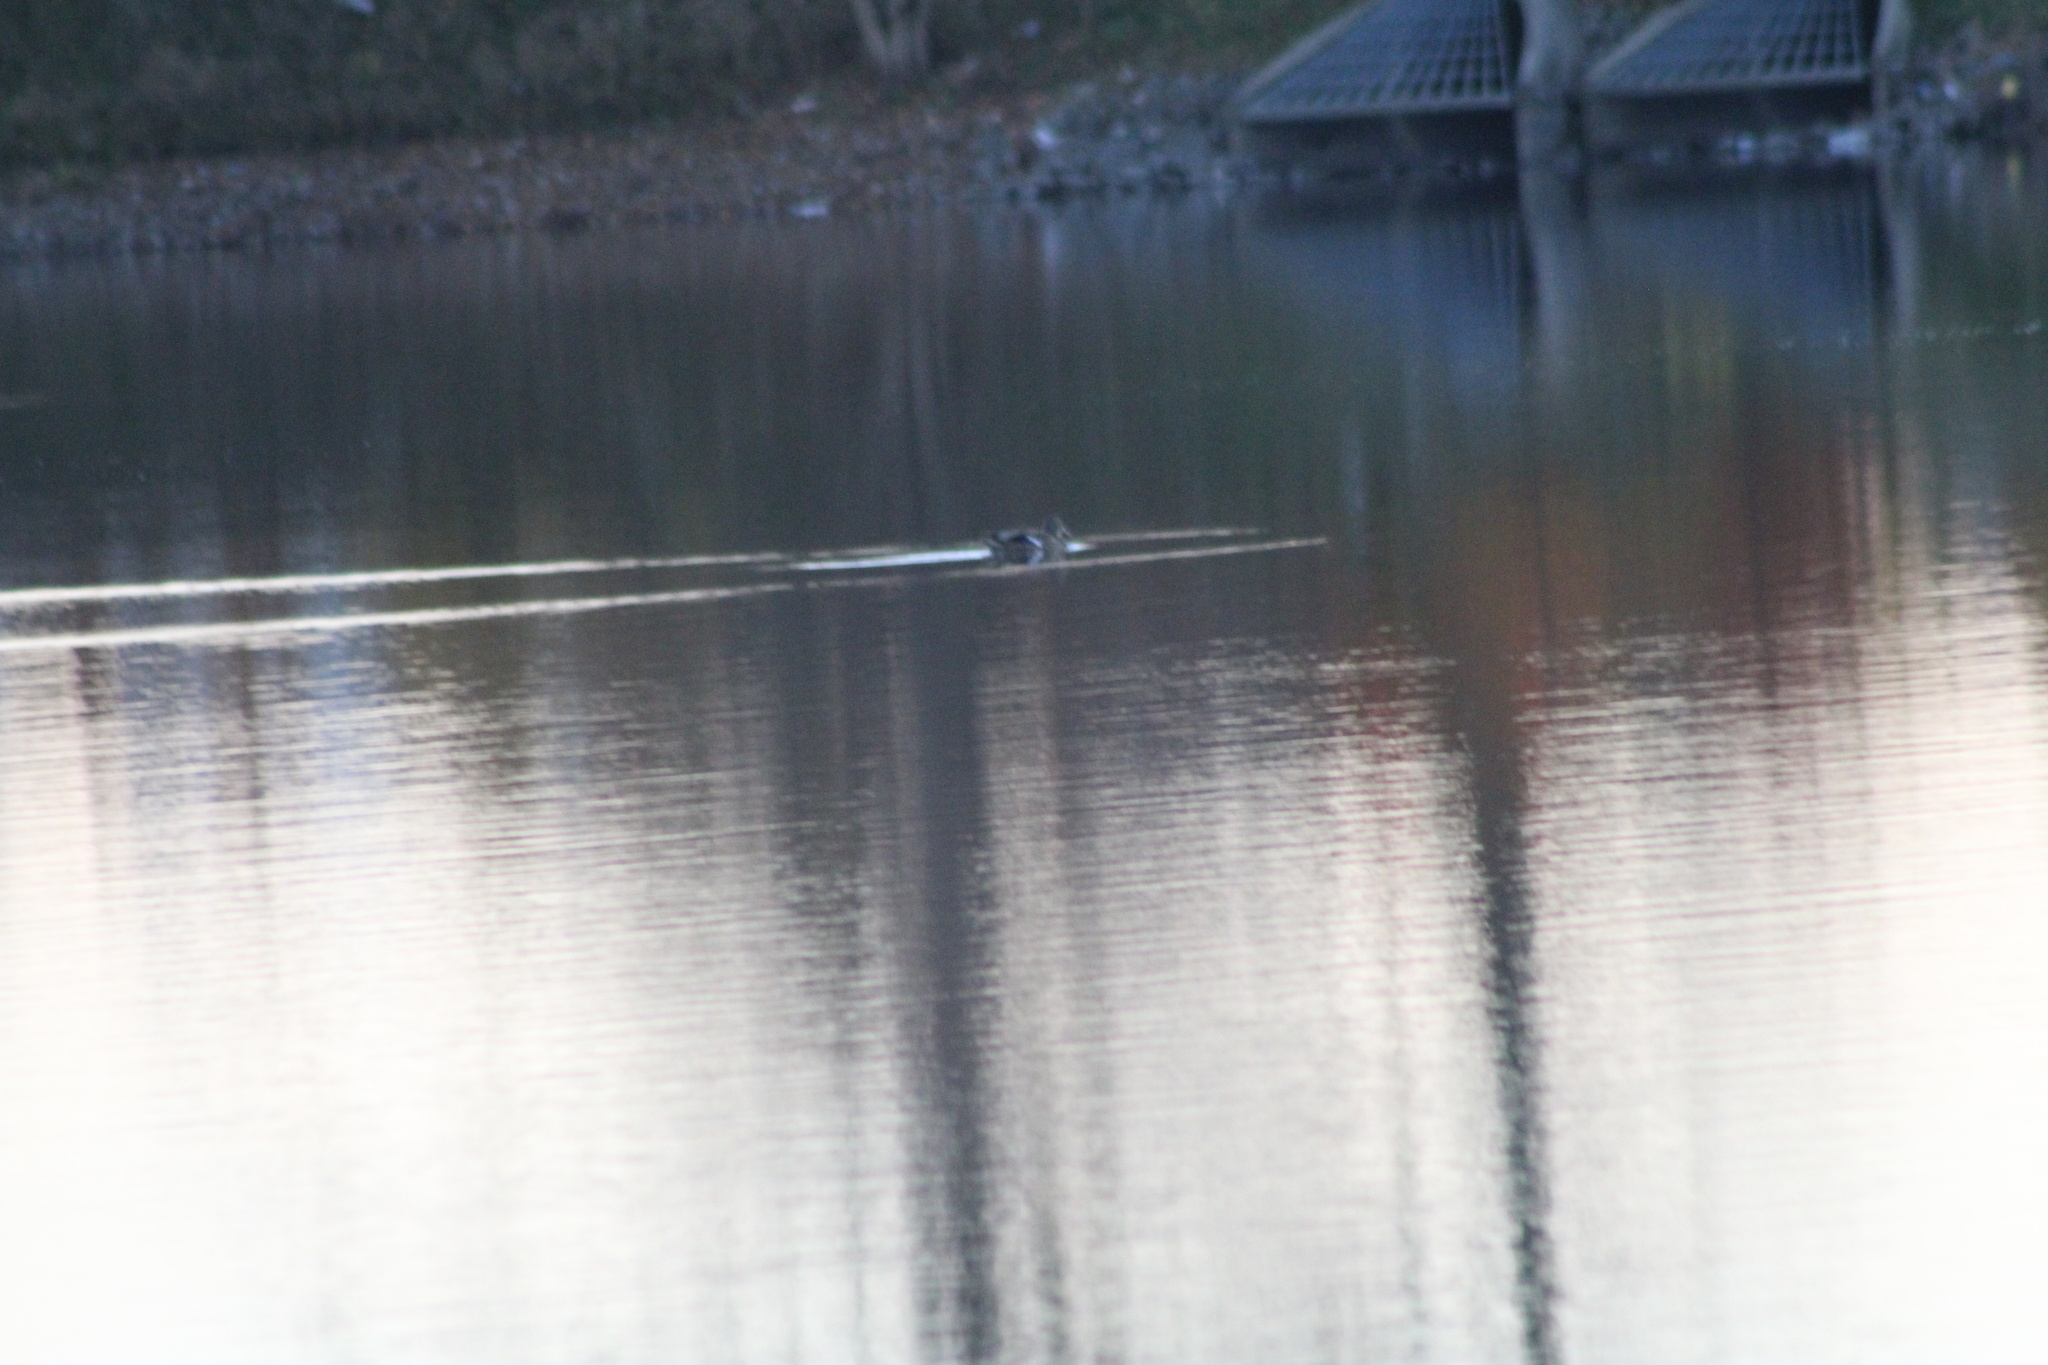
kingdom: Animalia
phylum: Chordata
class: Aves
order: Anseriformes
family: Anatidae
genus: Anas
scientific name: Anas platyrhynchos
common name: Mallard
